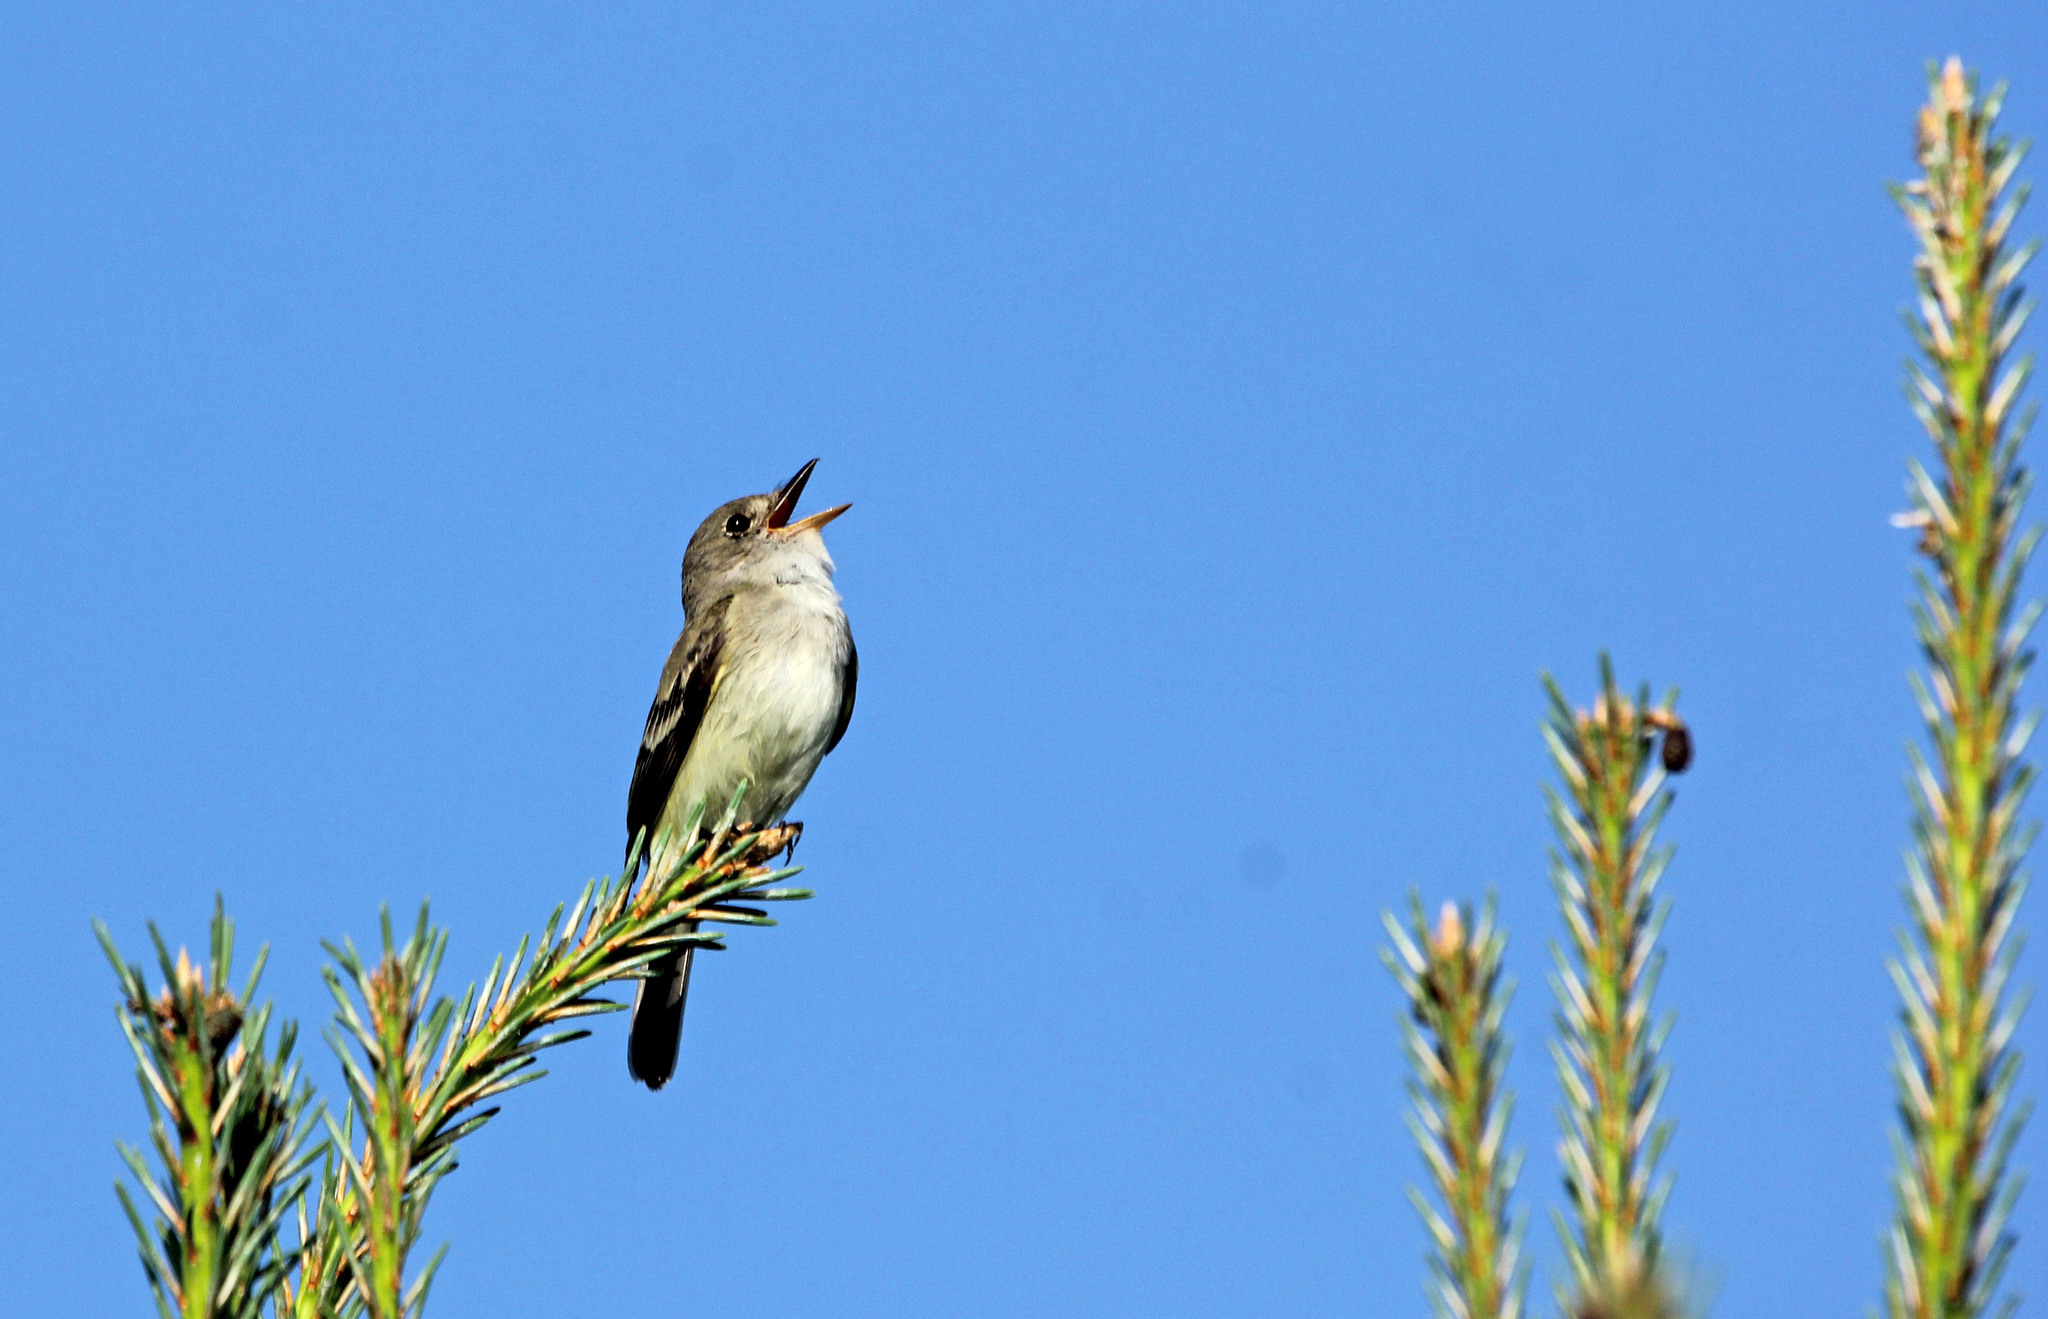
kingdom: Animalia
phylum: Chordata
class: Aves
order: Passeriformes
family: Tyrannidae
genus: Empidonax
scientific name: Empidonax traillii
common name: Willow flycatcher
